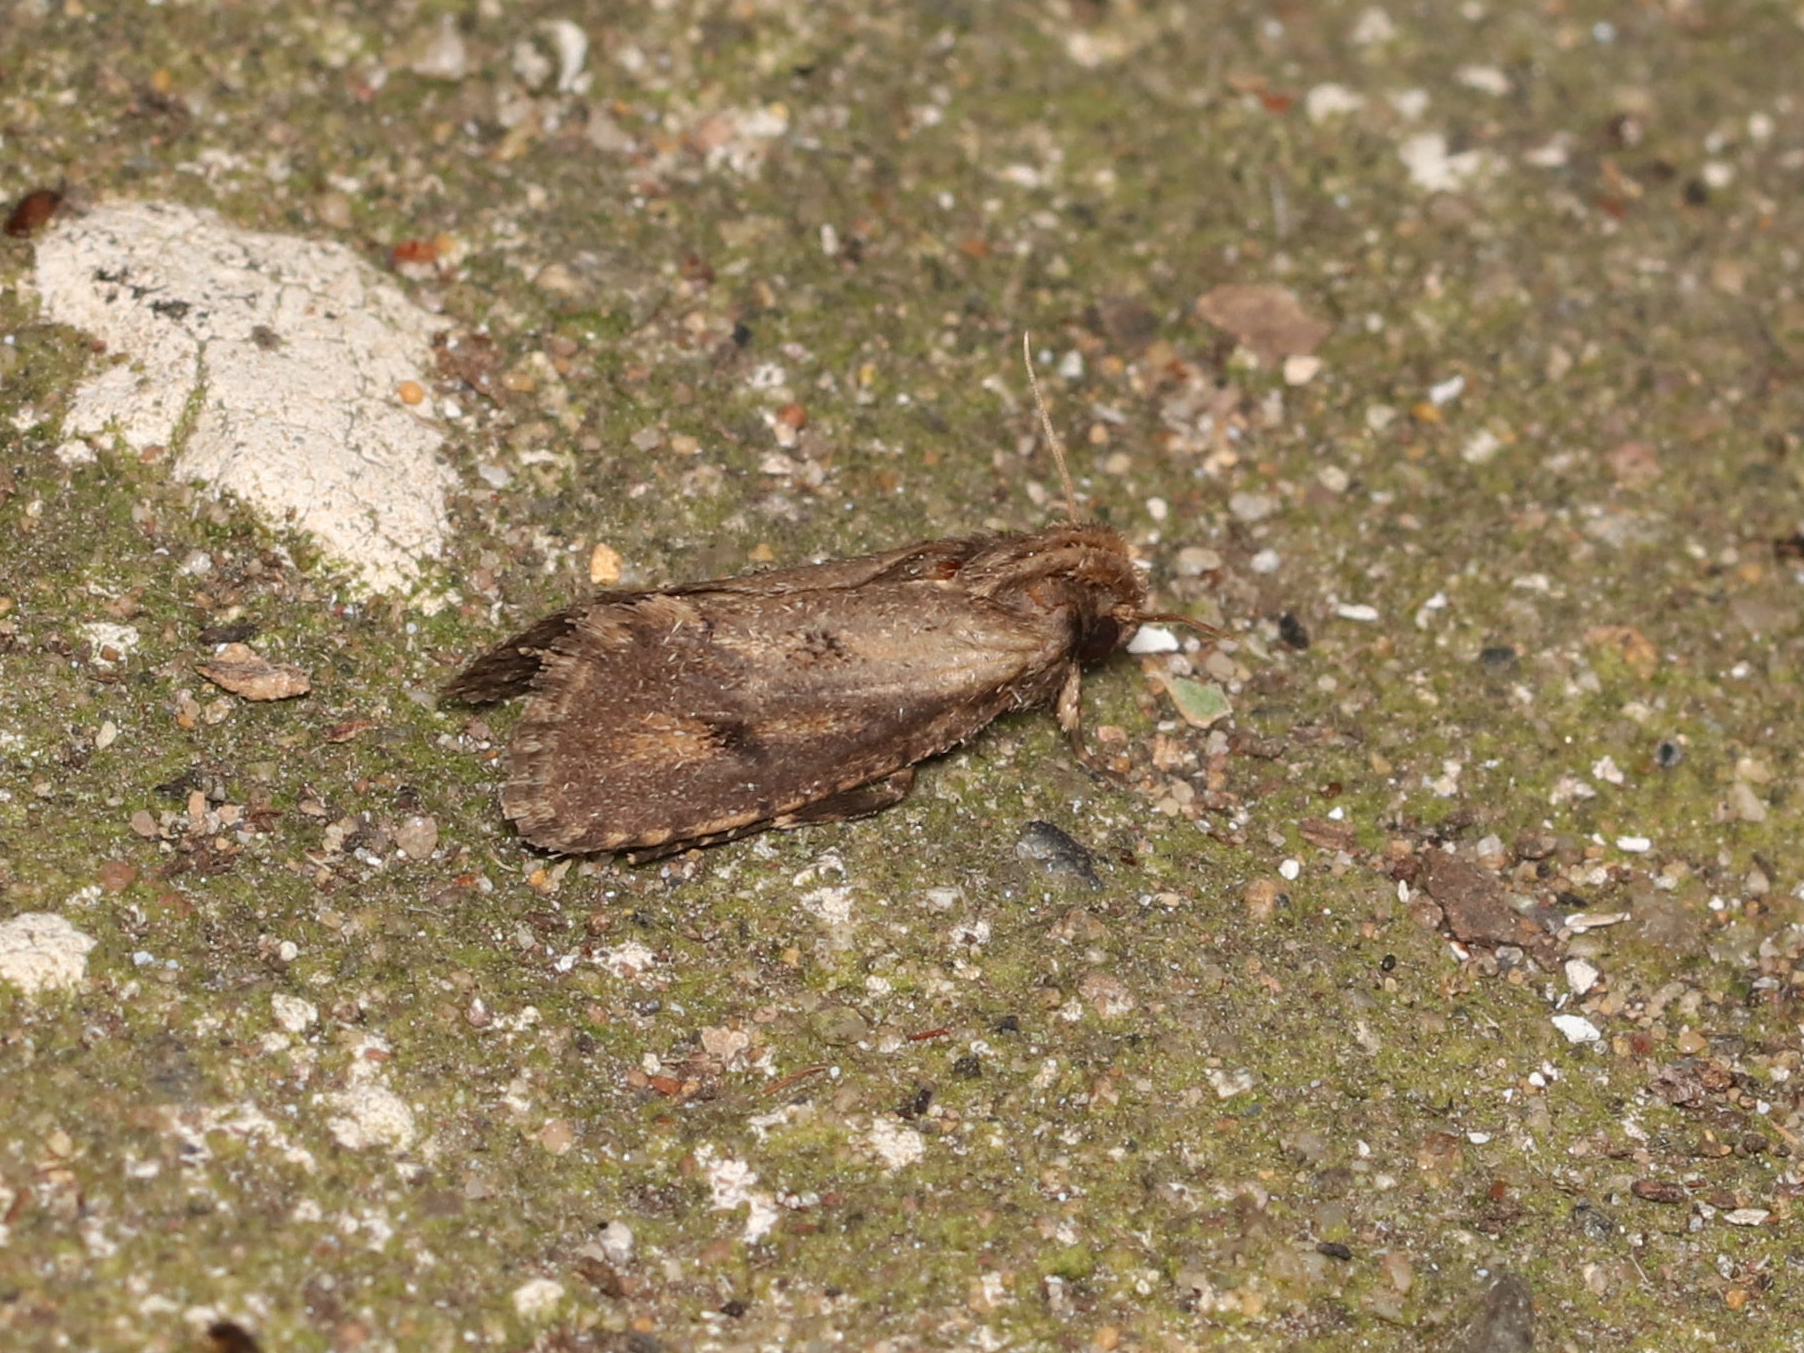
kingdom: Animalia
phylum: Arthropoda
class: Insecta
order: Lepidoptera
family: Tineidae
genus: Acrolophus
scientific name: Acrolophus popeanella
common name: Clemens' grass tubeworm moth
